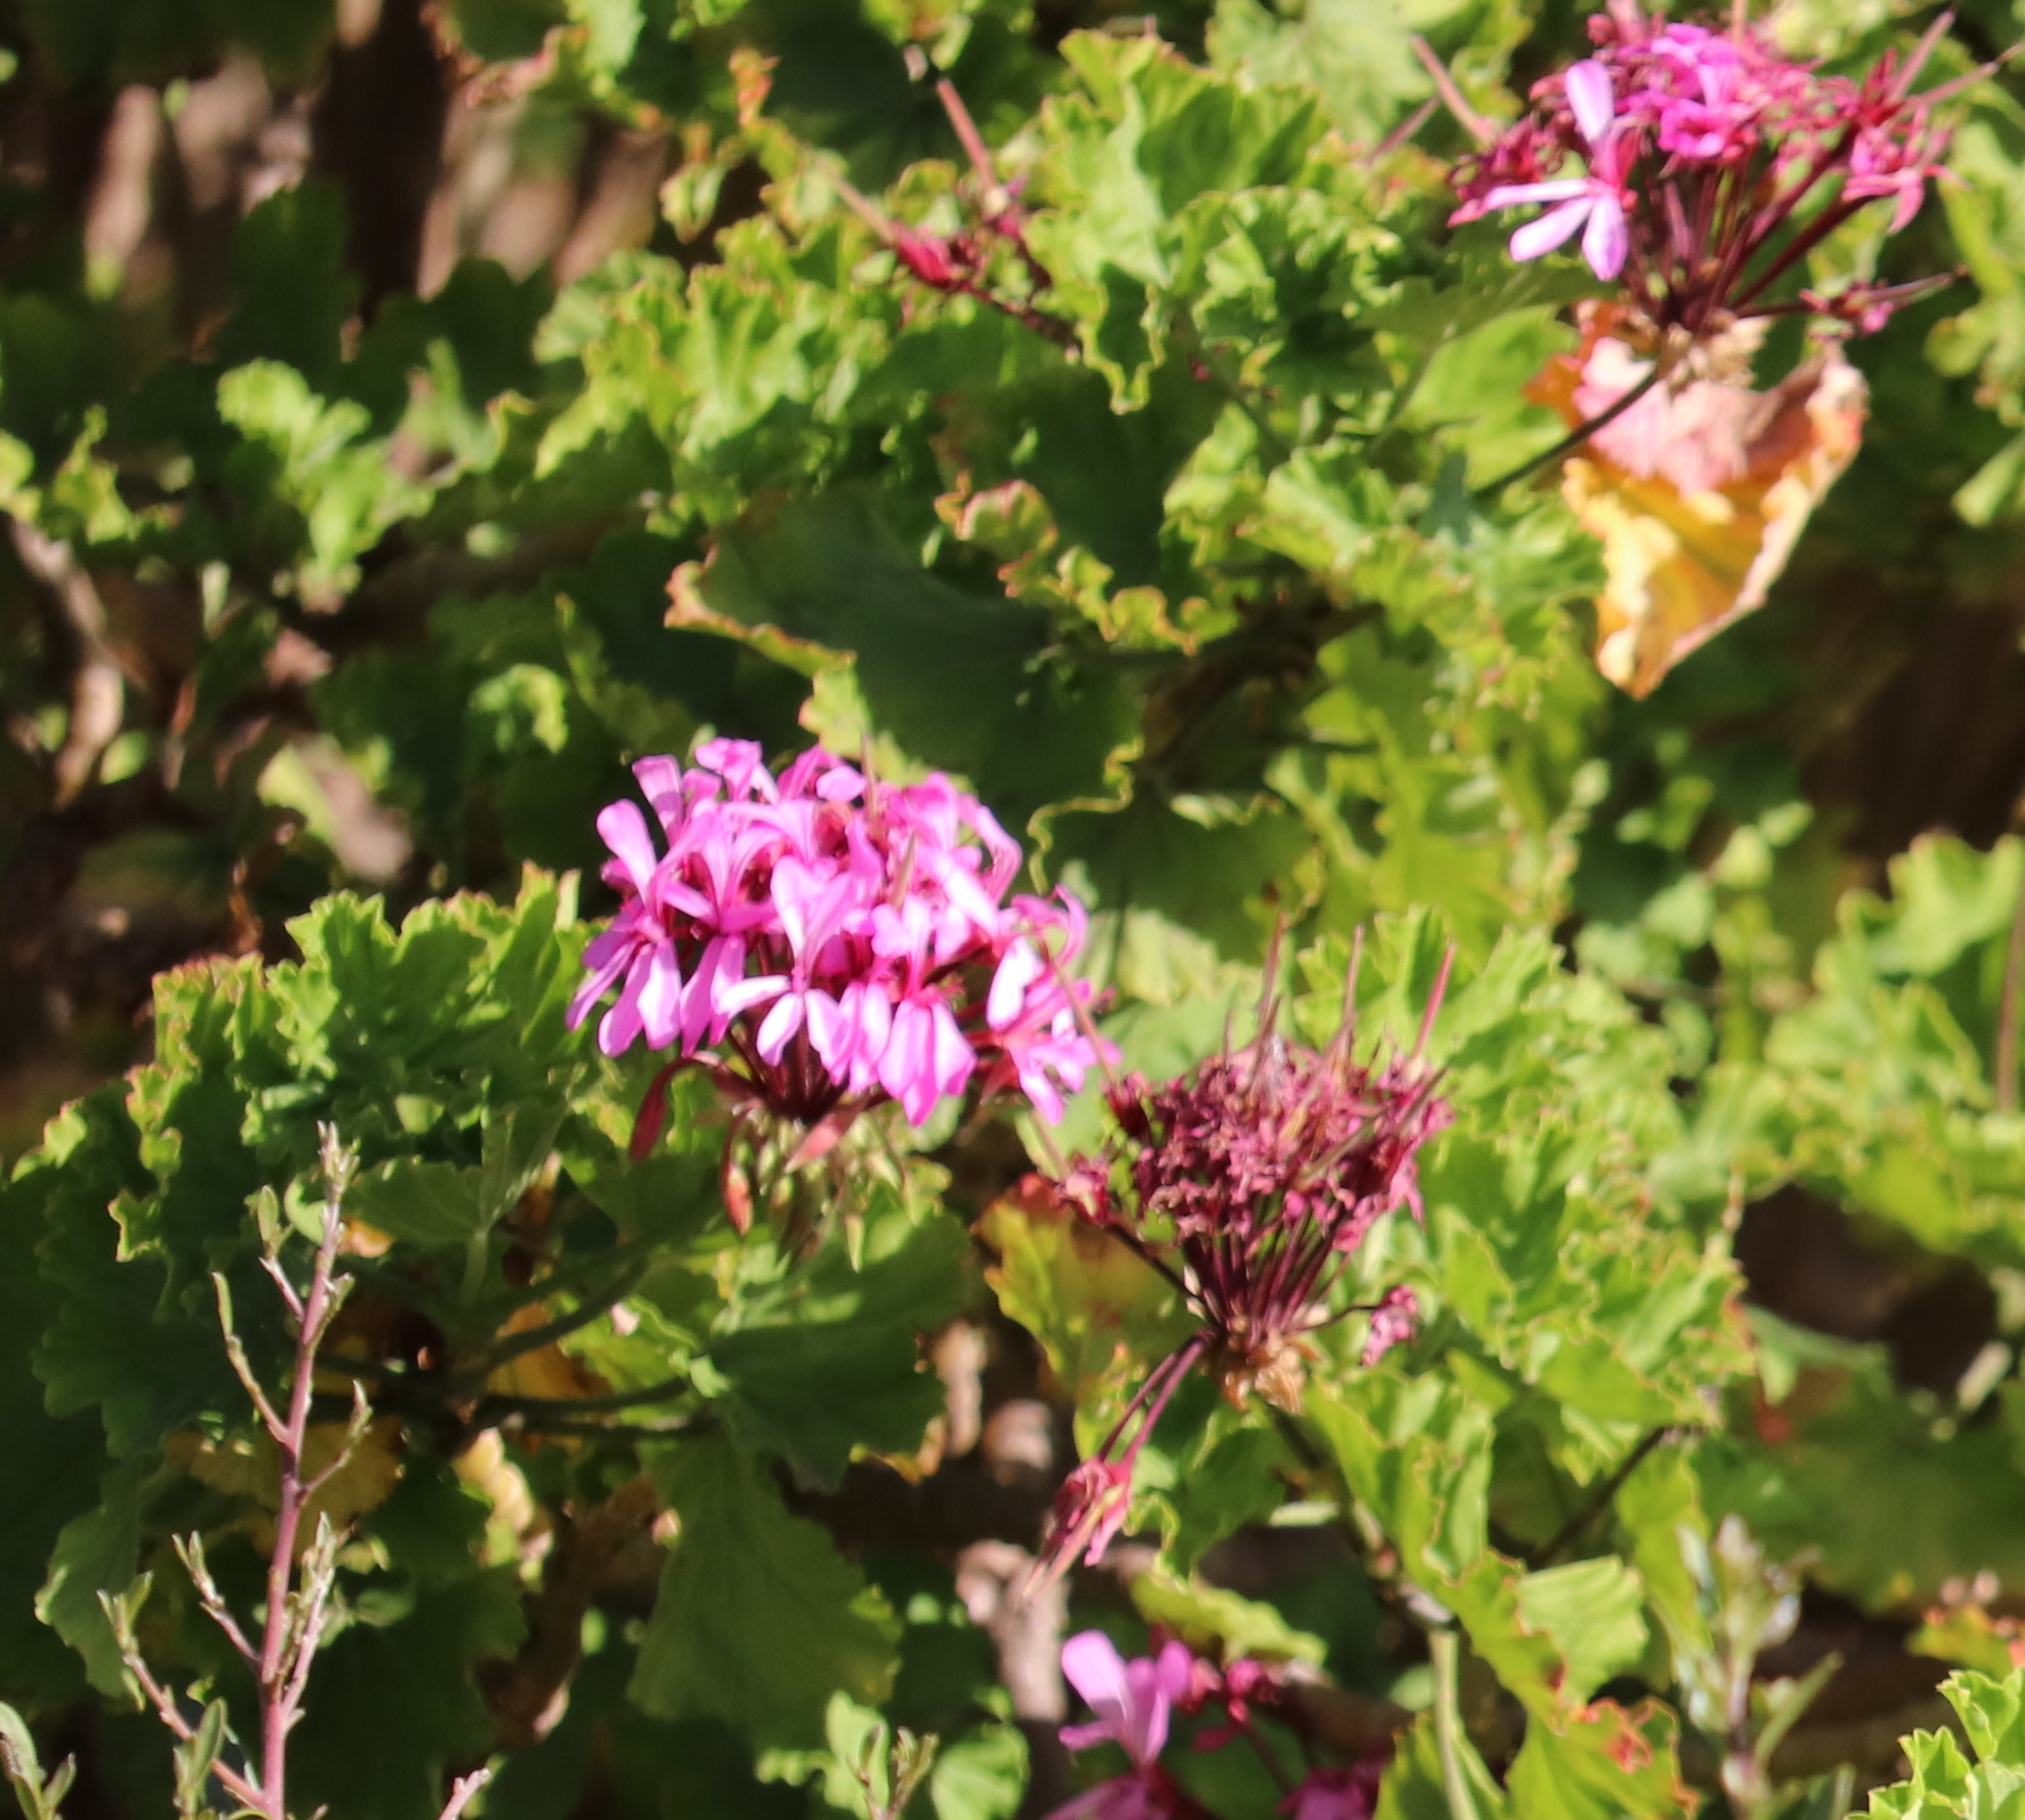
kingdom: Plantae
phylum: Tracheophyta
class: Magnoliopsida
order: Geraniales
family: Geraniaceae
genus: Pelargonium
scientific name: Pelargonium zonale
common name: Horseshoe geranium
